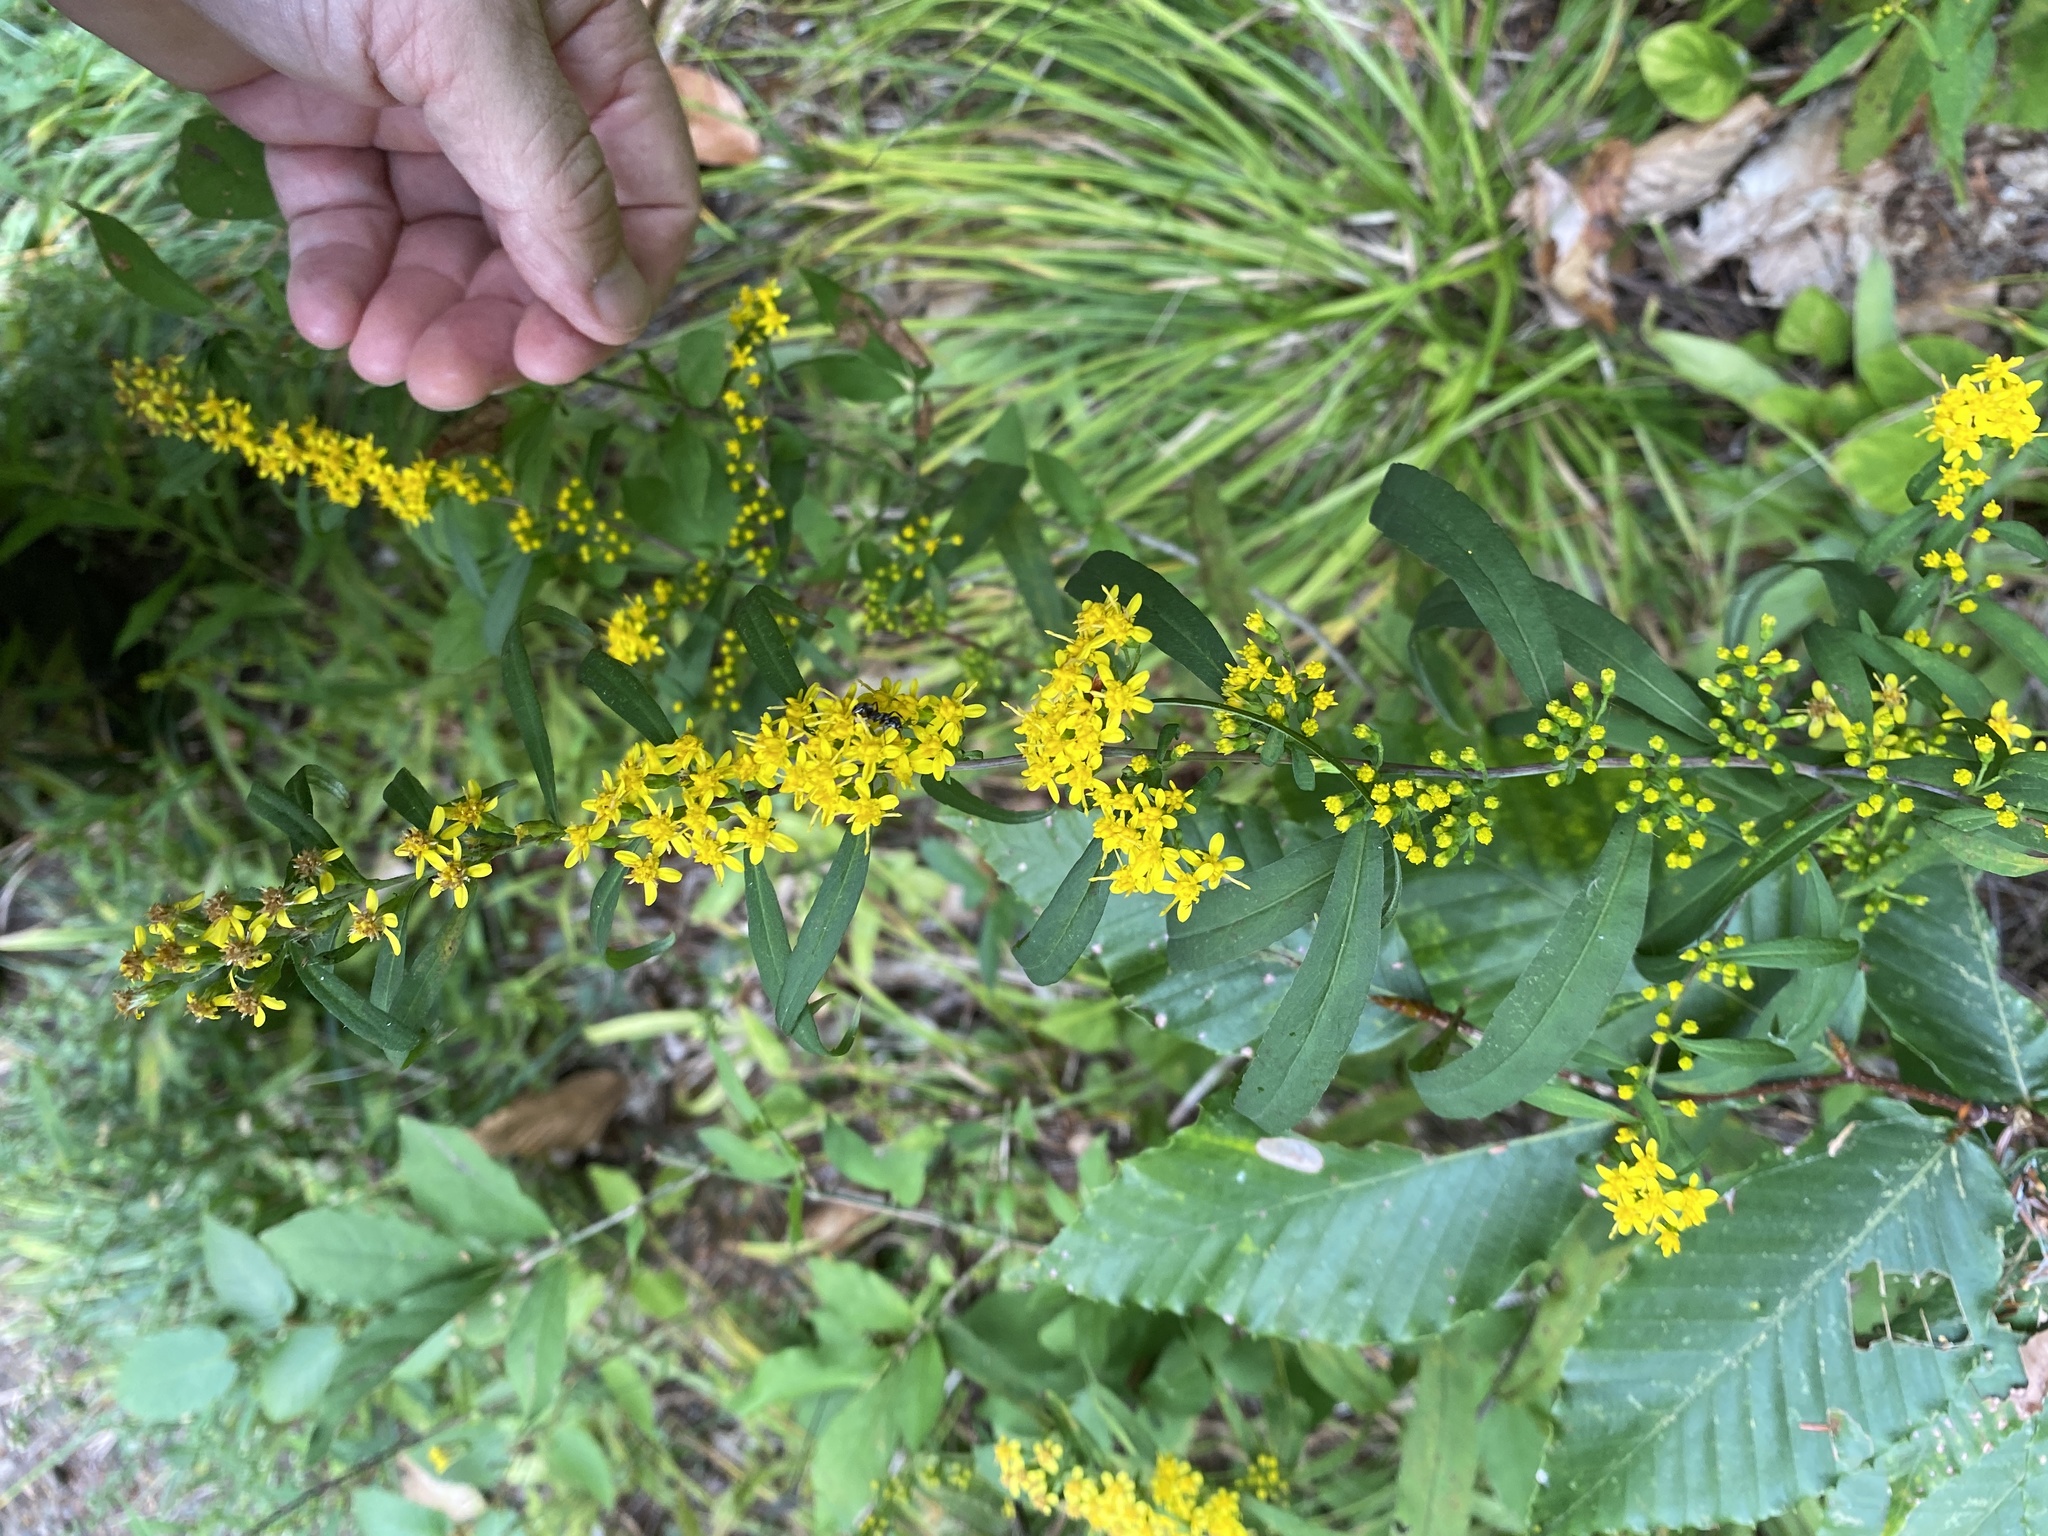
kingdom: Plantae
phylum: Tracheophyta
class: Magnoliopsida
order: Asterales
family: Asteraceae
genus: Solidago
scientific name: Solidago caesia
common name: Woodland goldenrod
